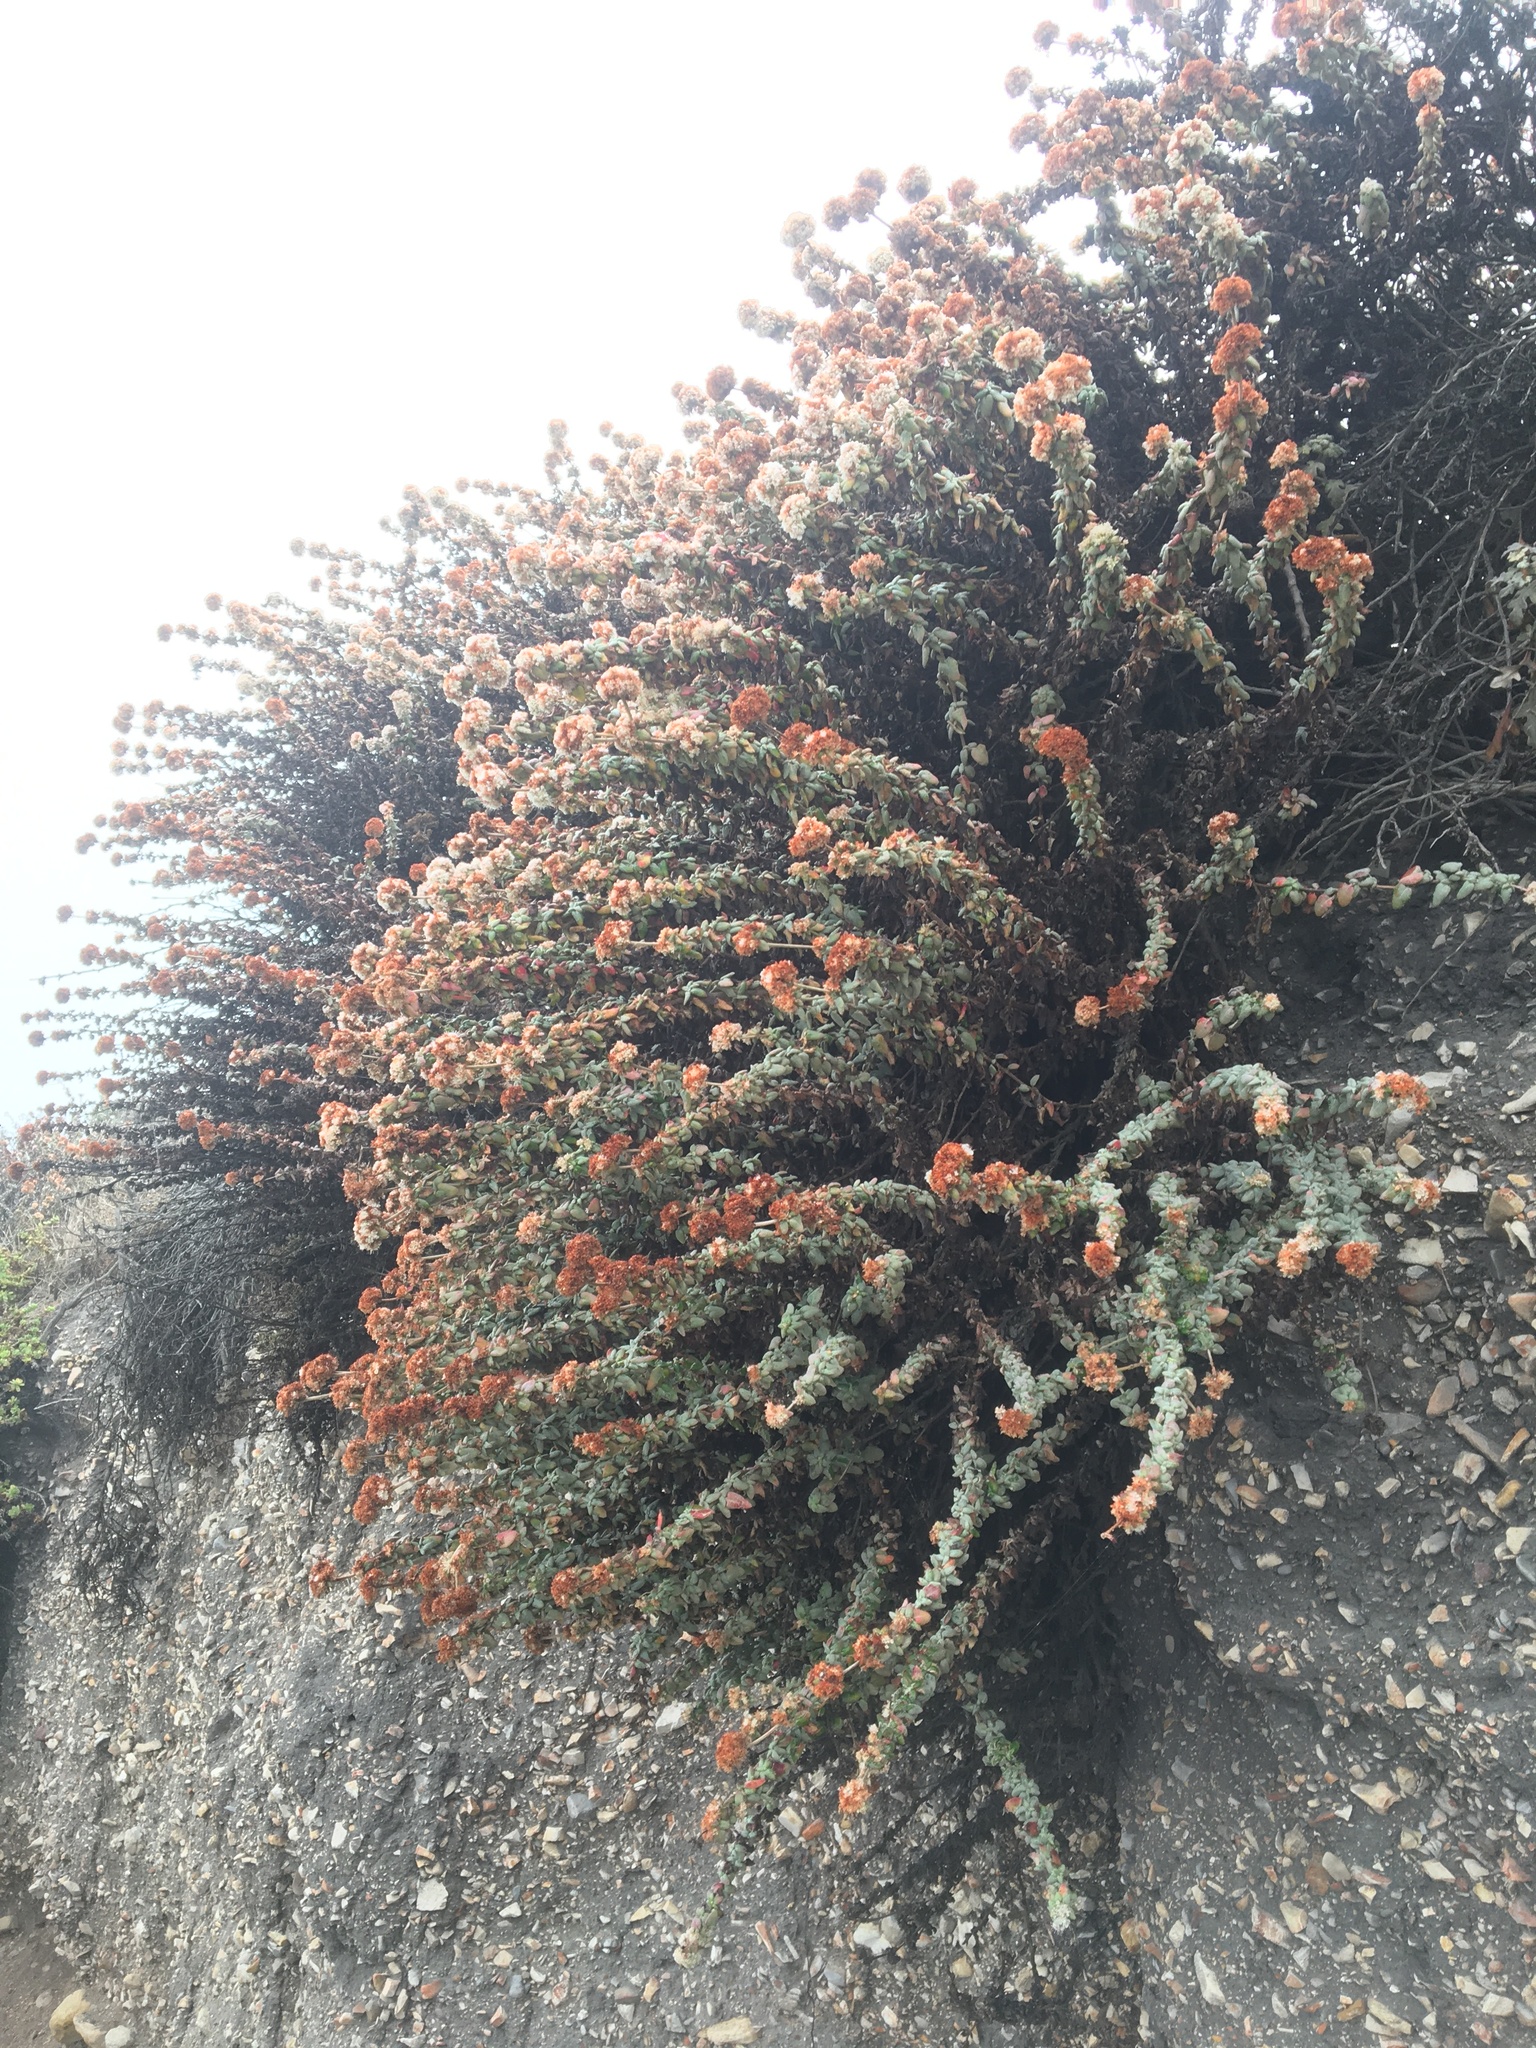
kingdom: Plantae
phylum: Tracheophyta
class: Magnoliopsida
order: Caryophyllales
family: Polygonaceae
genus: Eriogonum
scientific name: Eriogonum parvifolium
